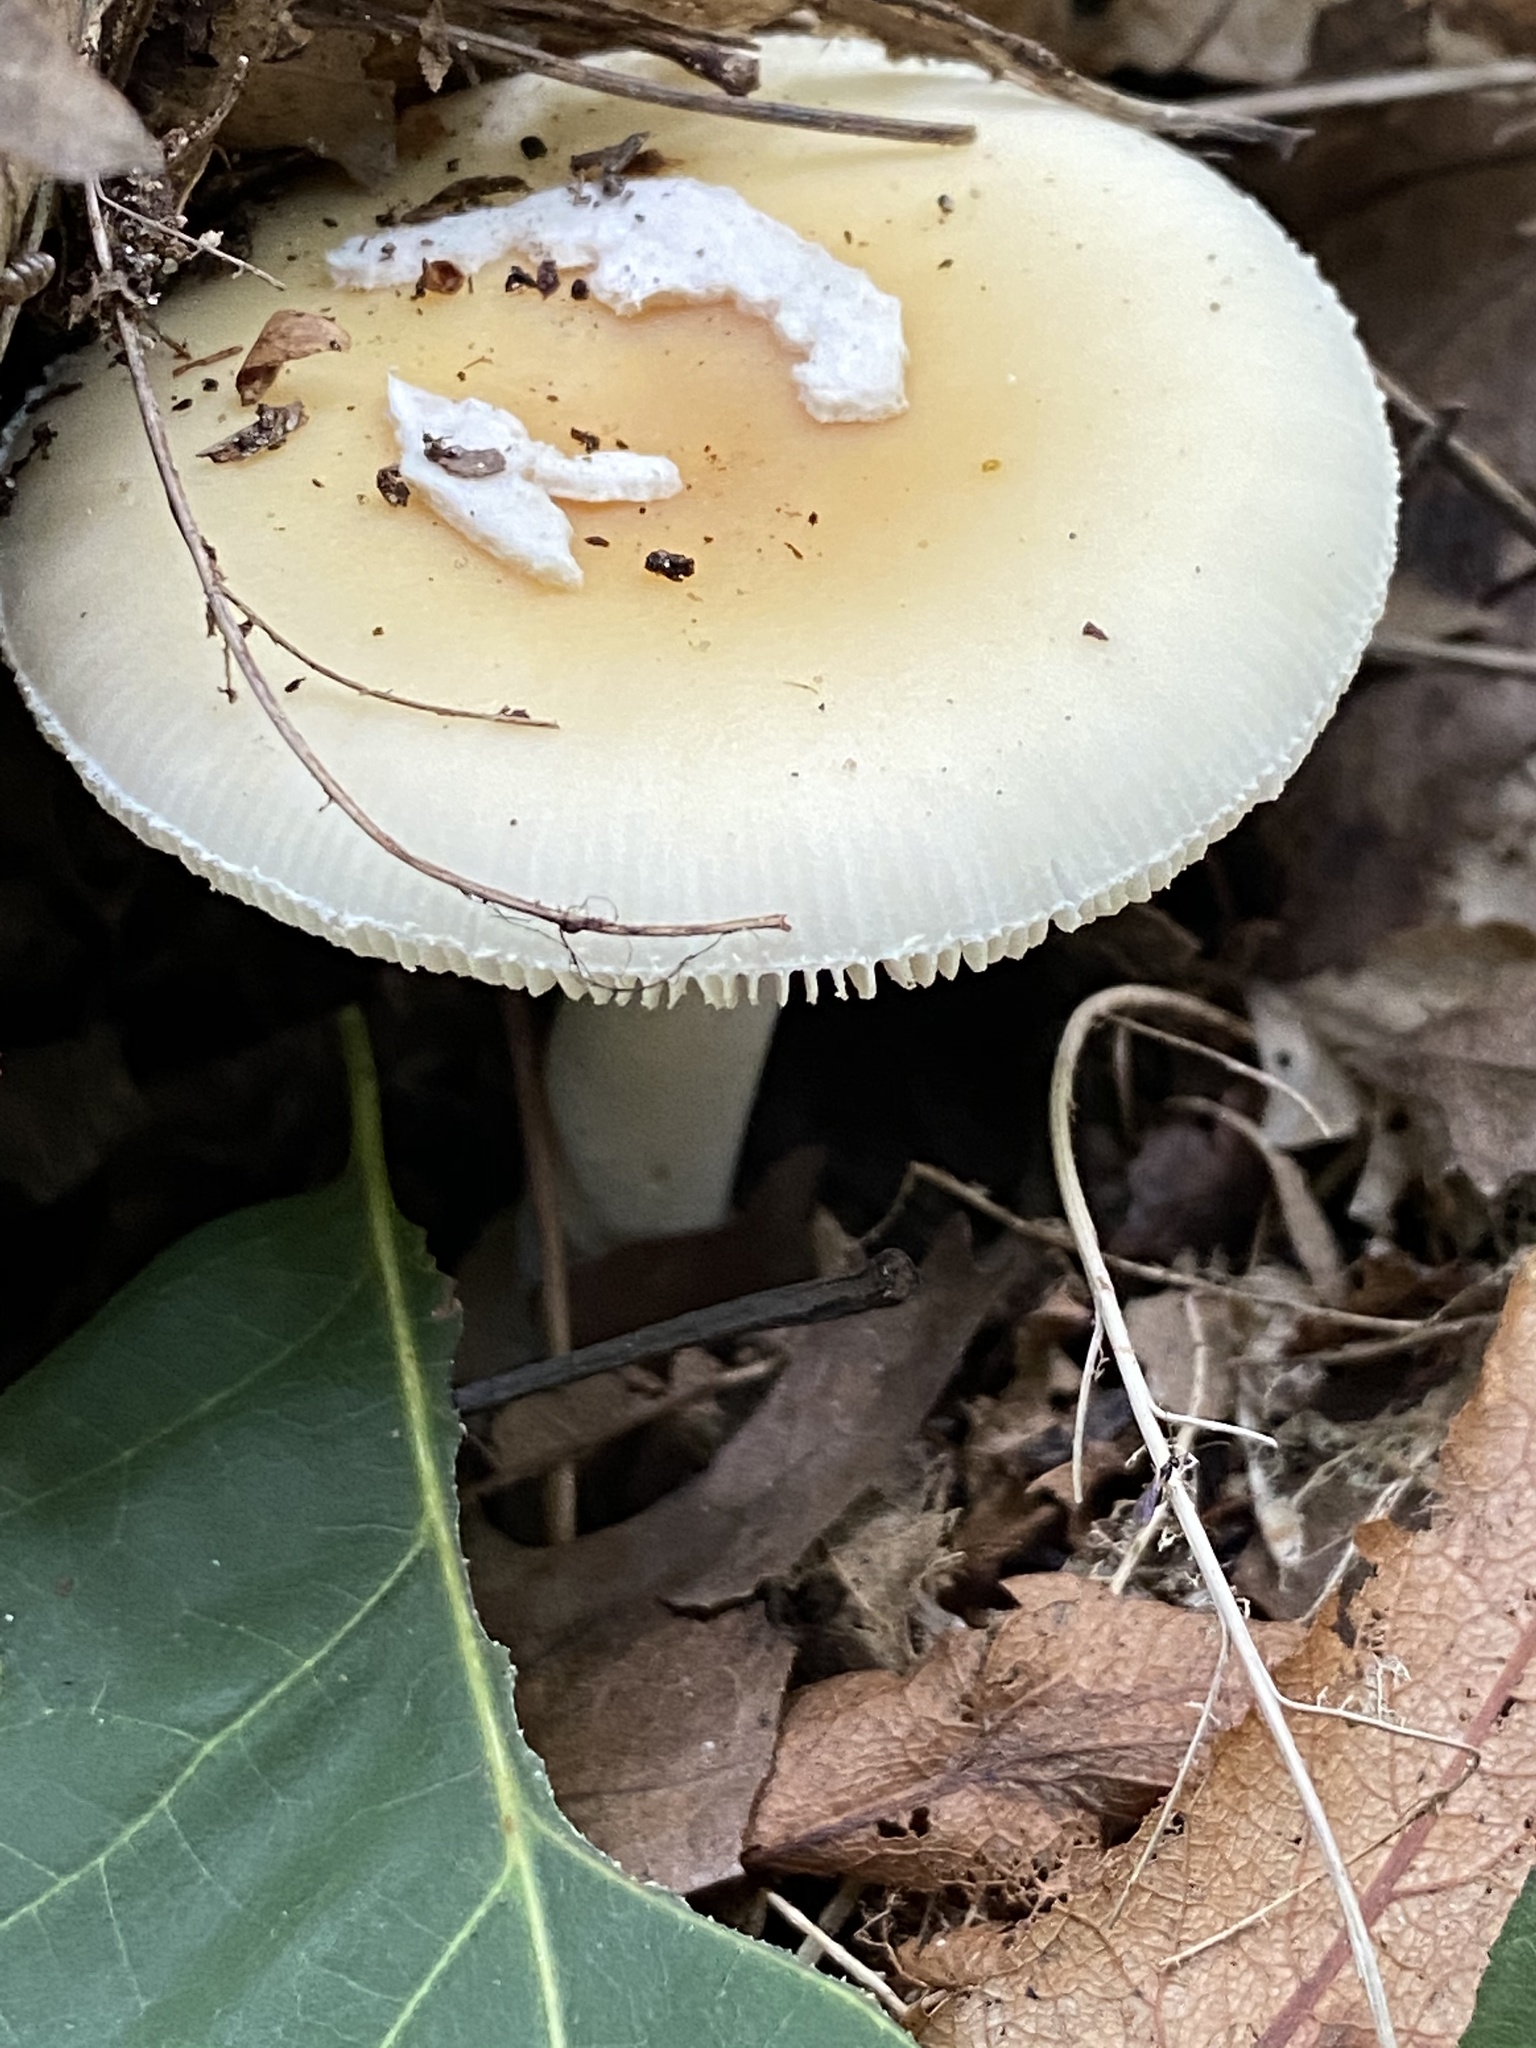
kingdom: Fungi
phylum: Basidiomycota
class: Agaricomycetes
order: Agaricales
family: Amanitaceae
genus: Amanita
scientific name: Amanita gemmata
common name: Jewelled amanita
